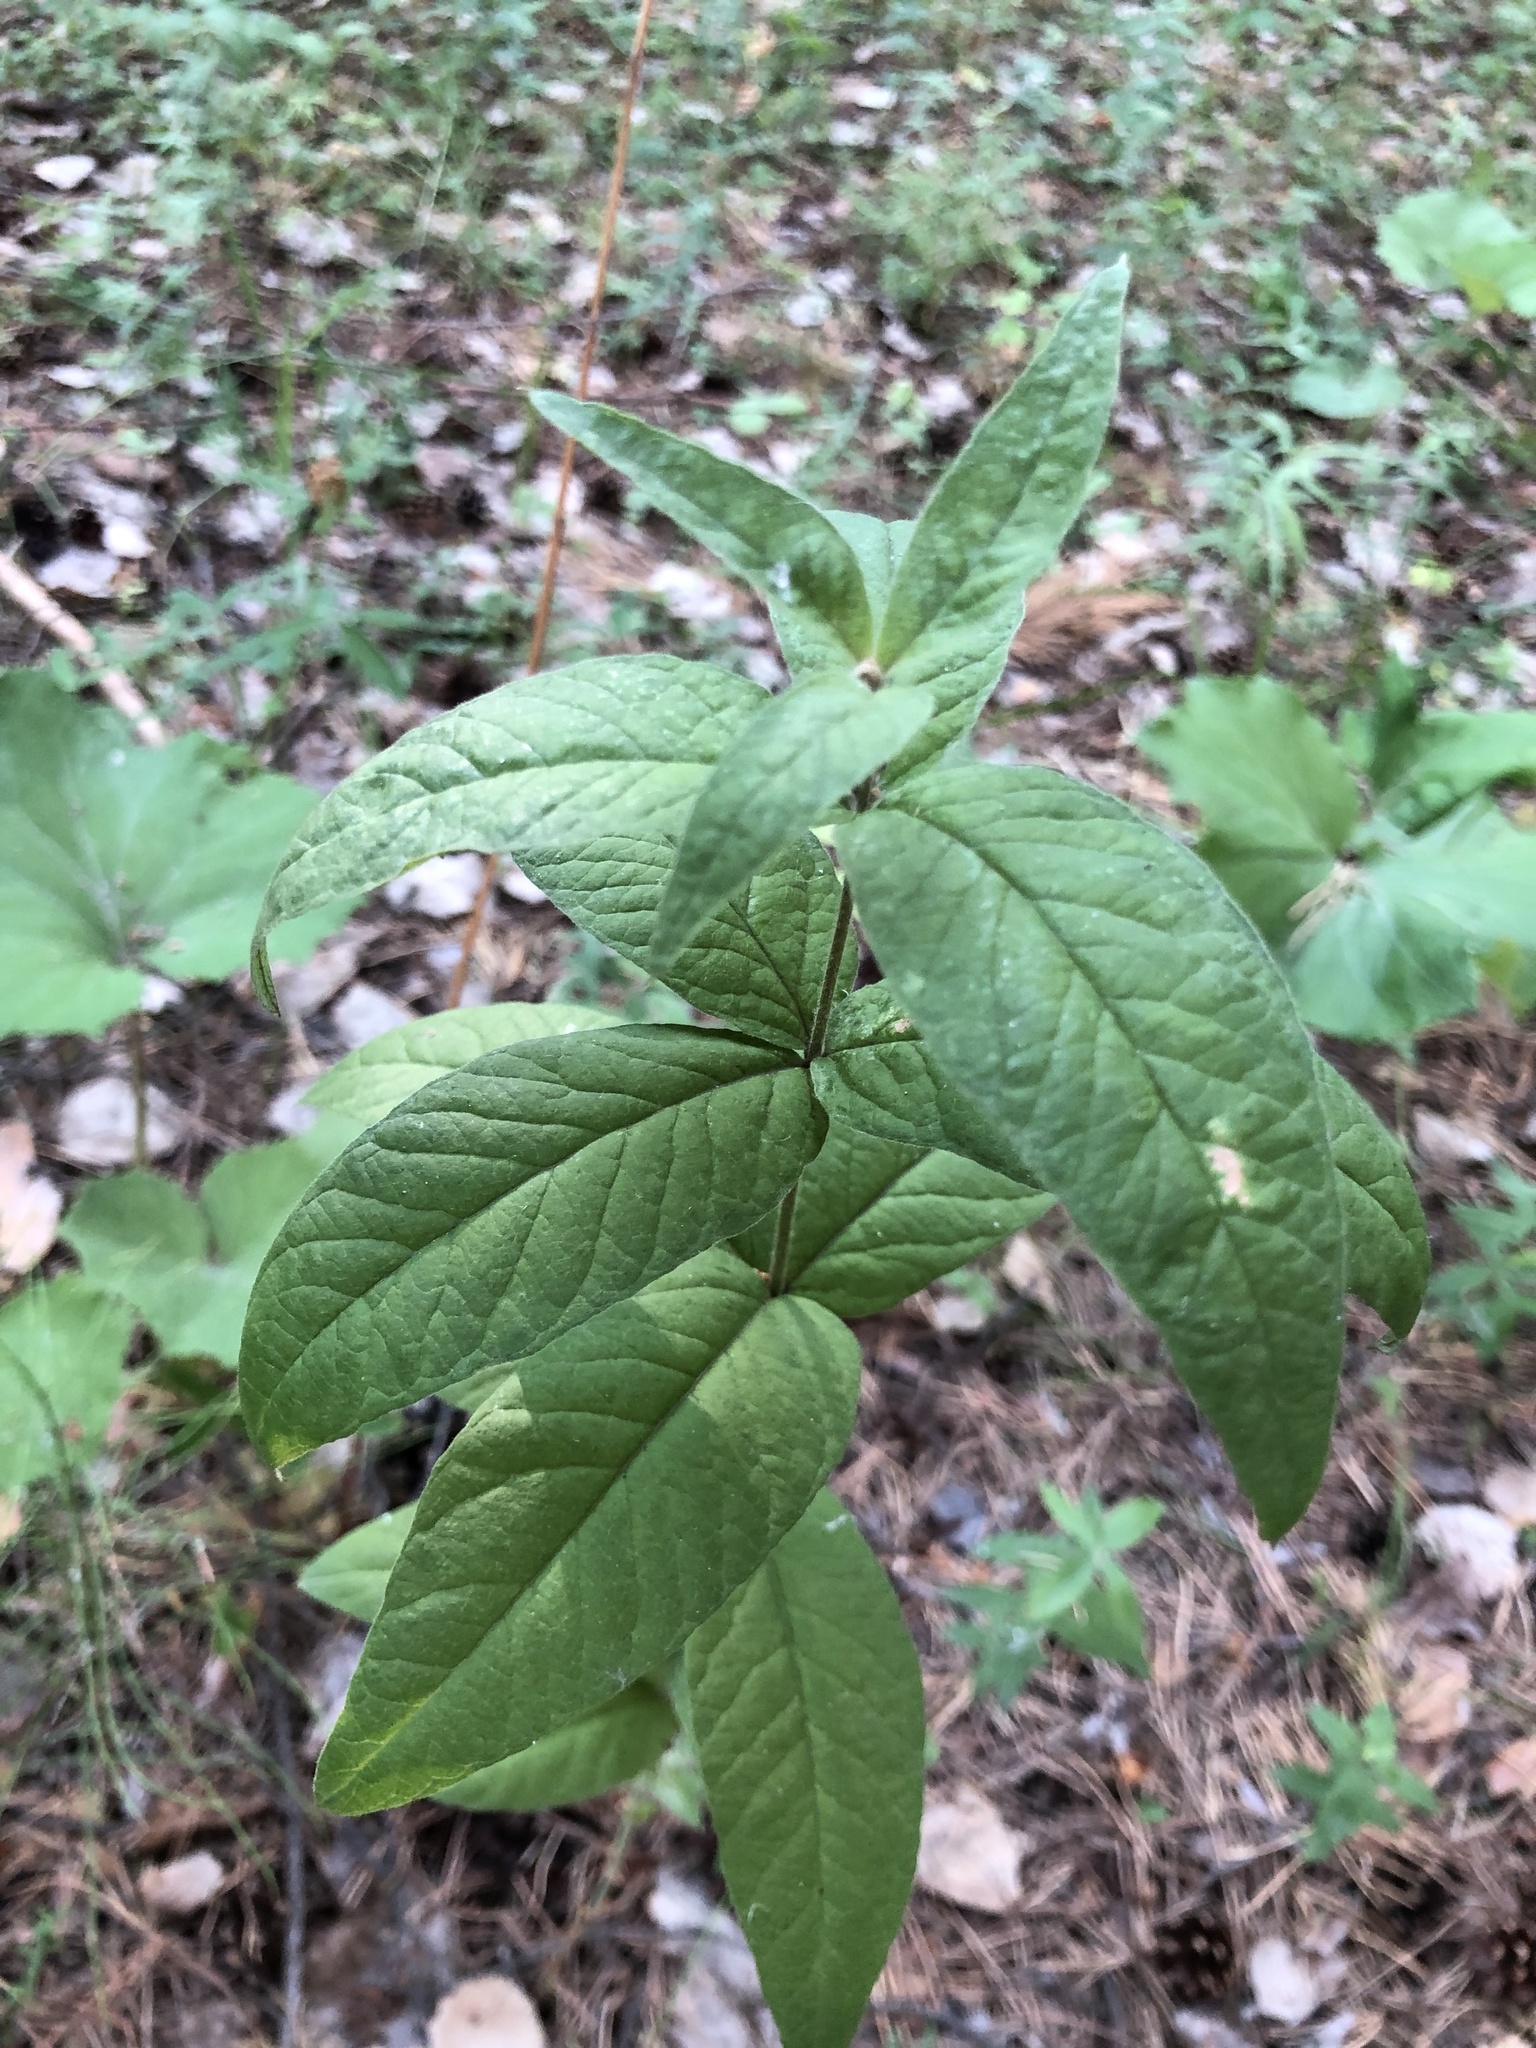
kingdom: Plantae
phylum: Tracheophyta
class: Magnoliopsida
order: Ericales
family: Primulaceae
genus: Lysimachia
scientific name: Lysimachia vulgaris
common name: Yellow loosestrife
